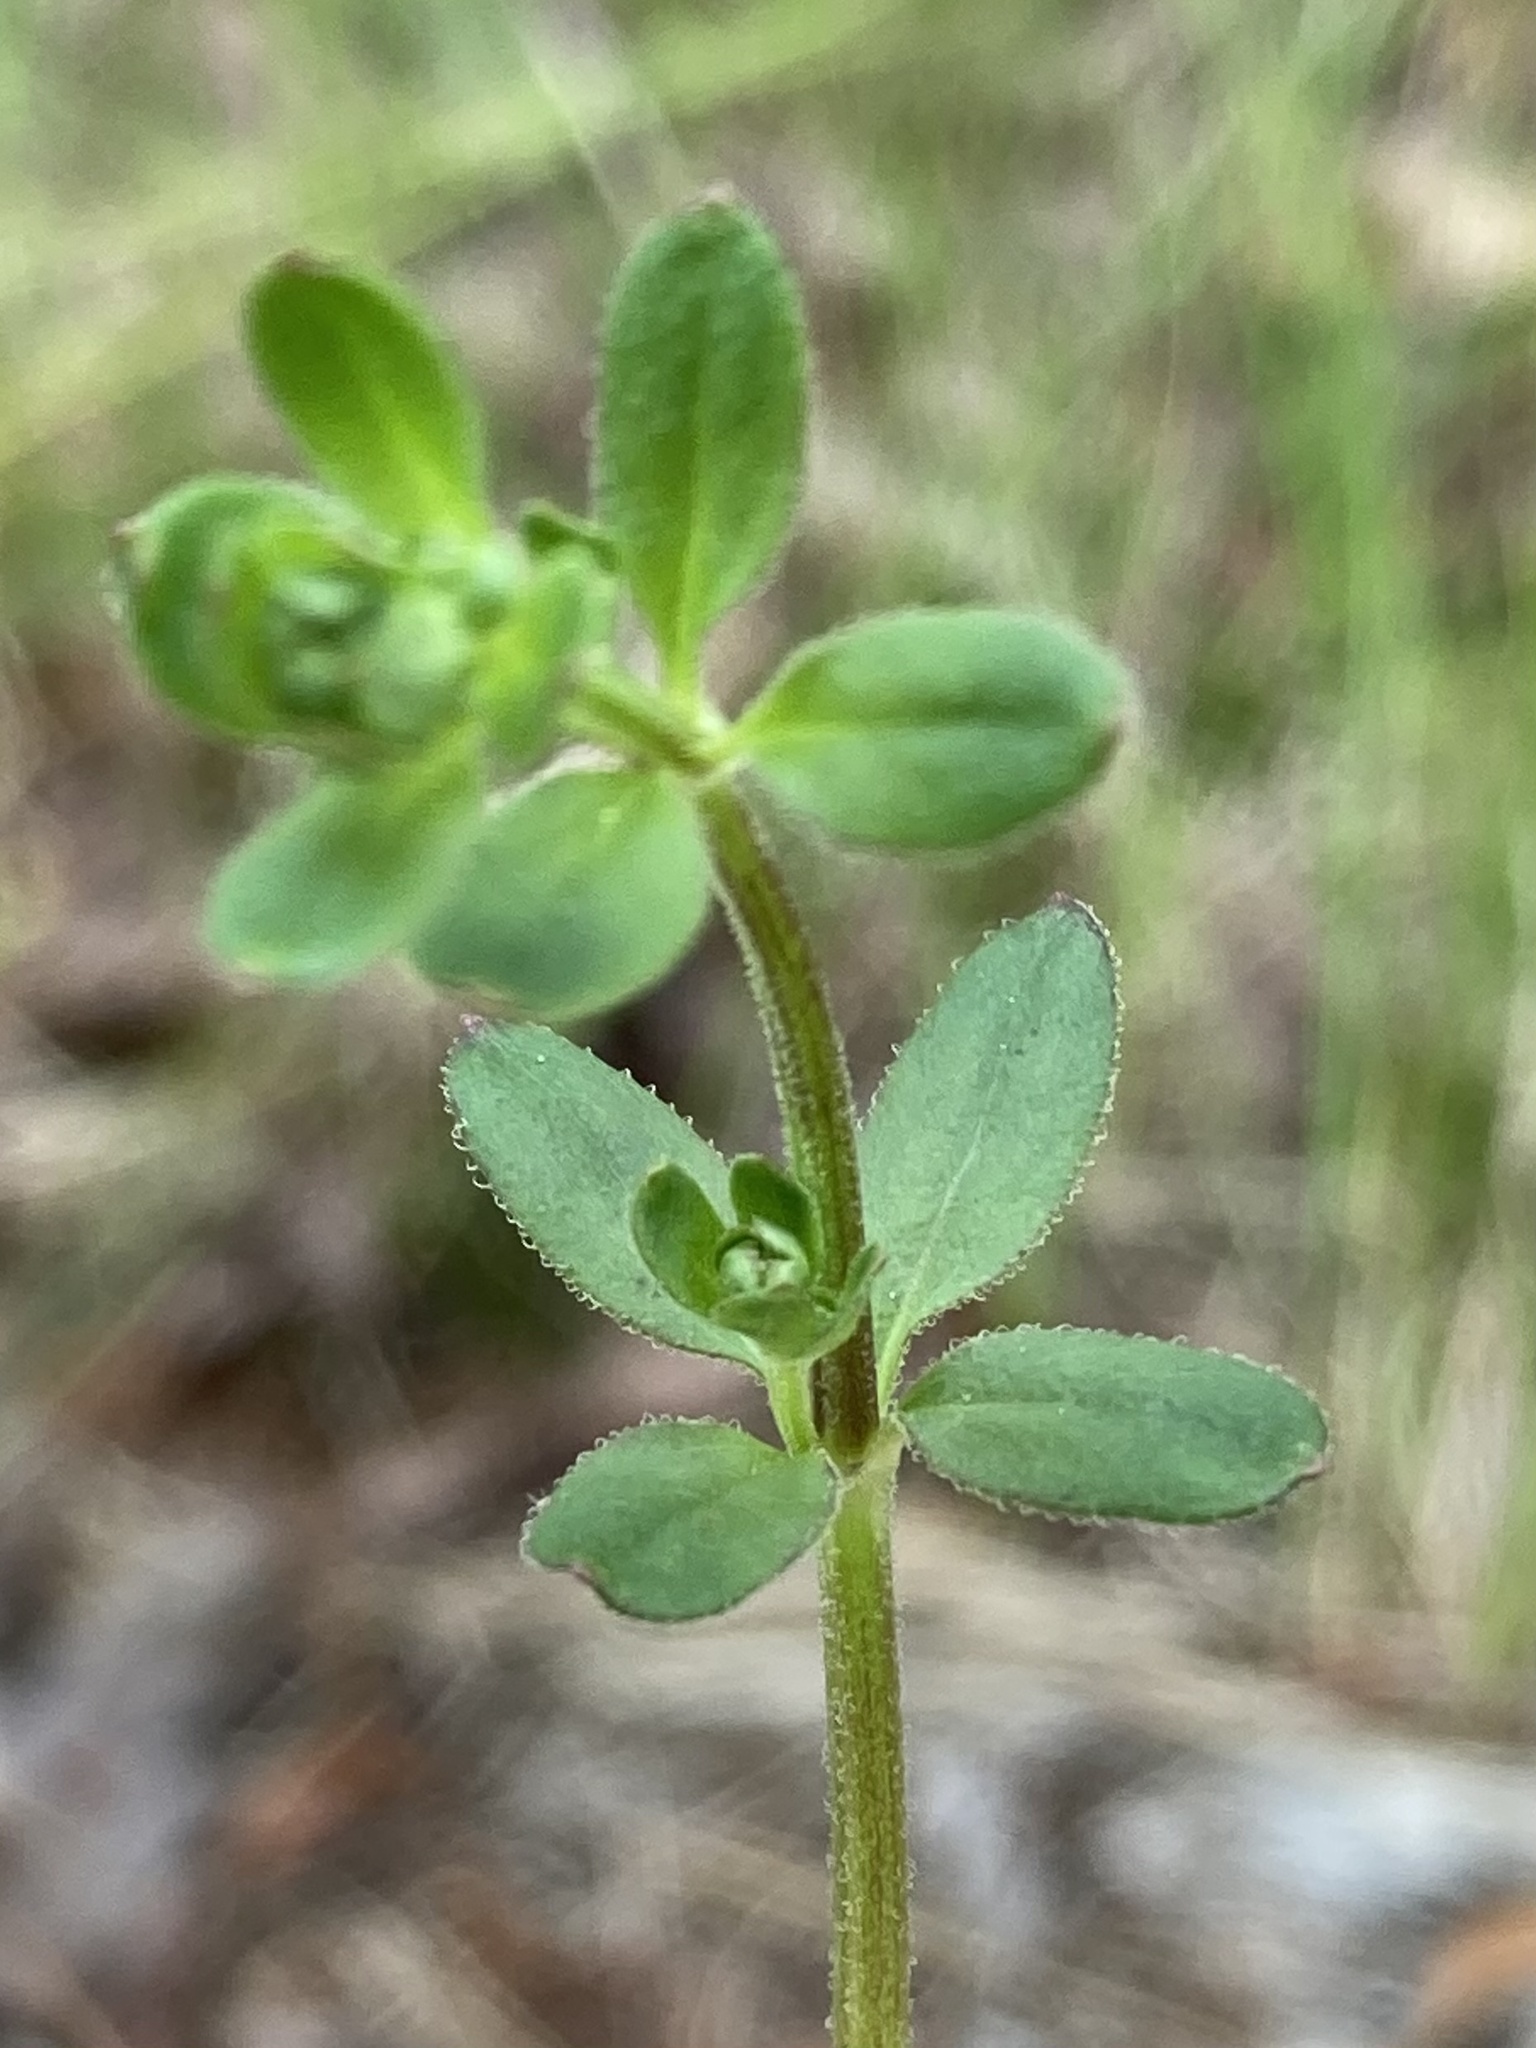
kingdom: Plantae
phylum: Tracheophyta
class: Magnoliopsida
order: Gentianales
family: Rubiaceae
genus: Galium
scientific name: Galium pilosum
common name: Hairy bedstraw
